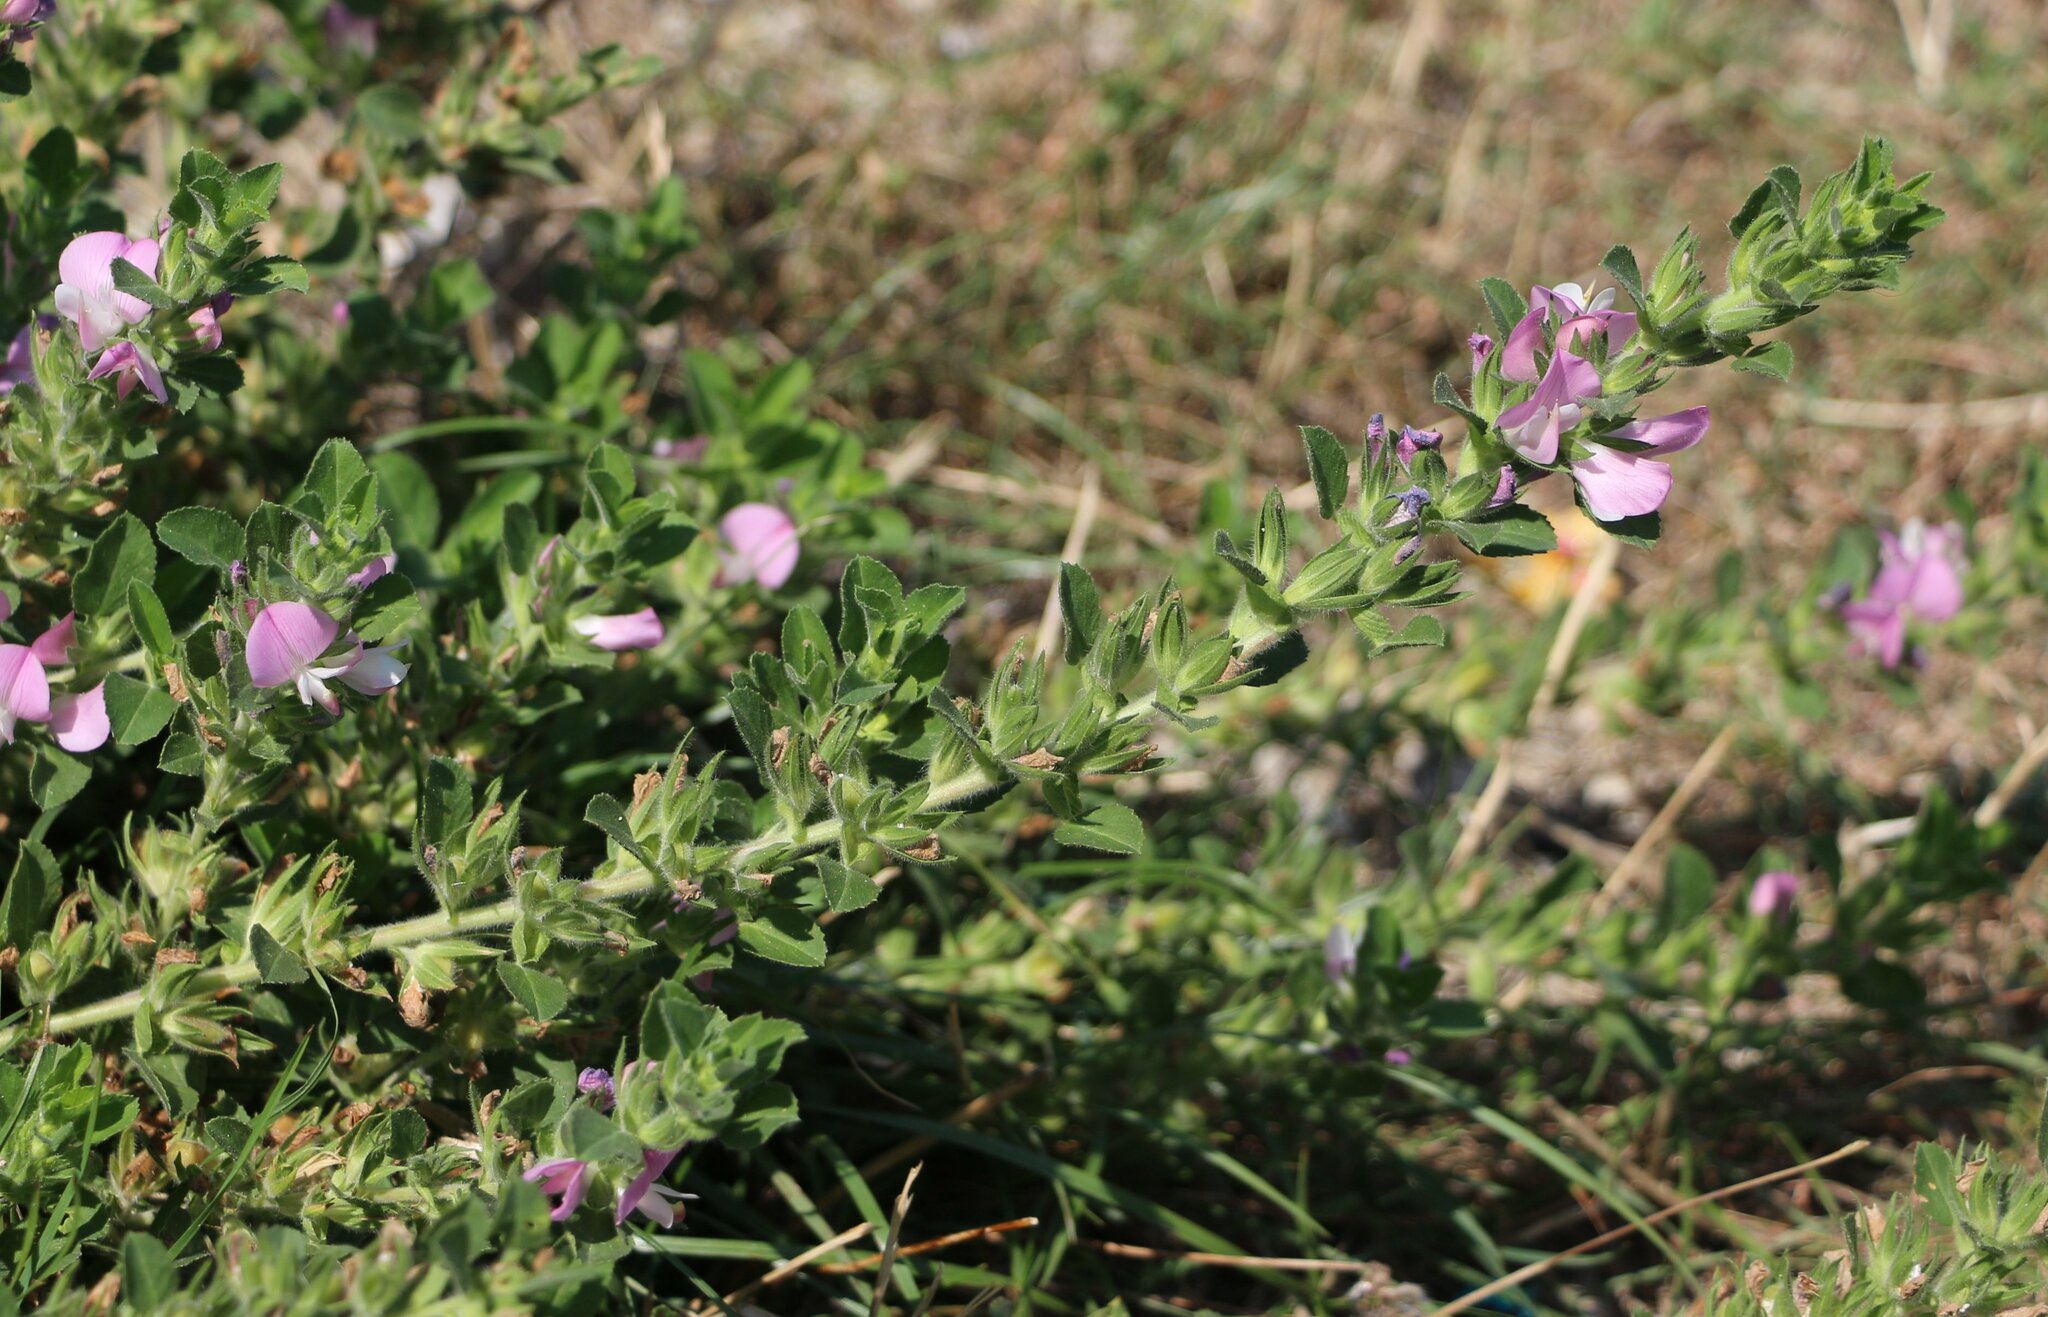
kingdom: Plantae
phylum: Tracheophyta
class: Magnoliopsida
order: Fabales
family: Fabaceae
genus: Ononis
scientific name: Ononis arvensis
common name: Field restharrow
